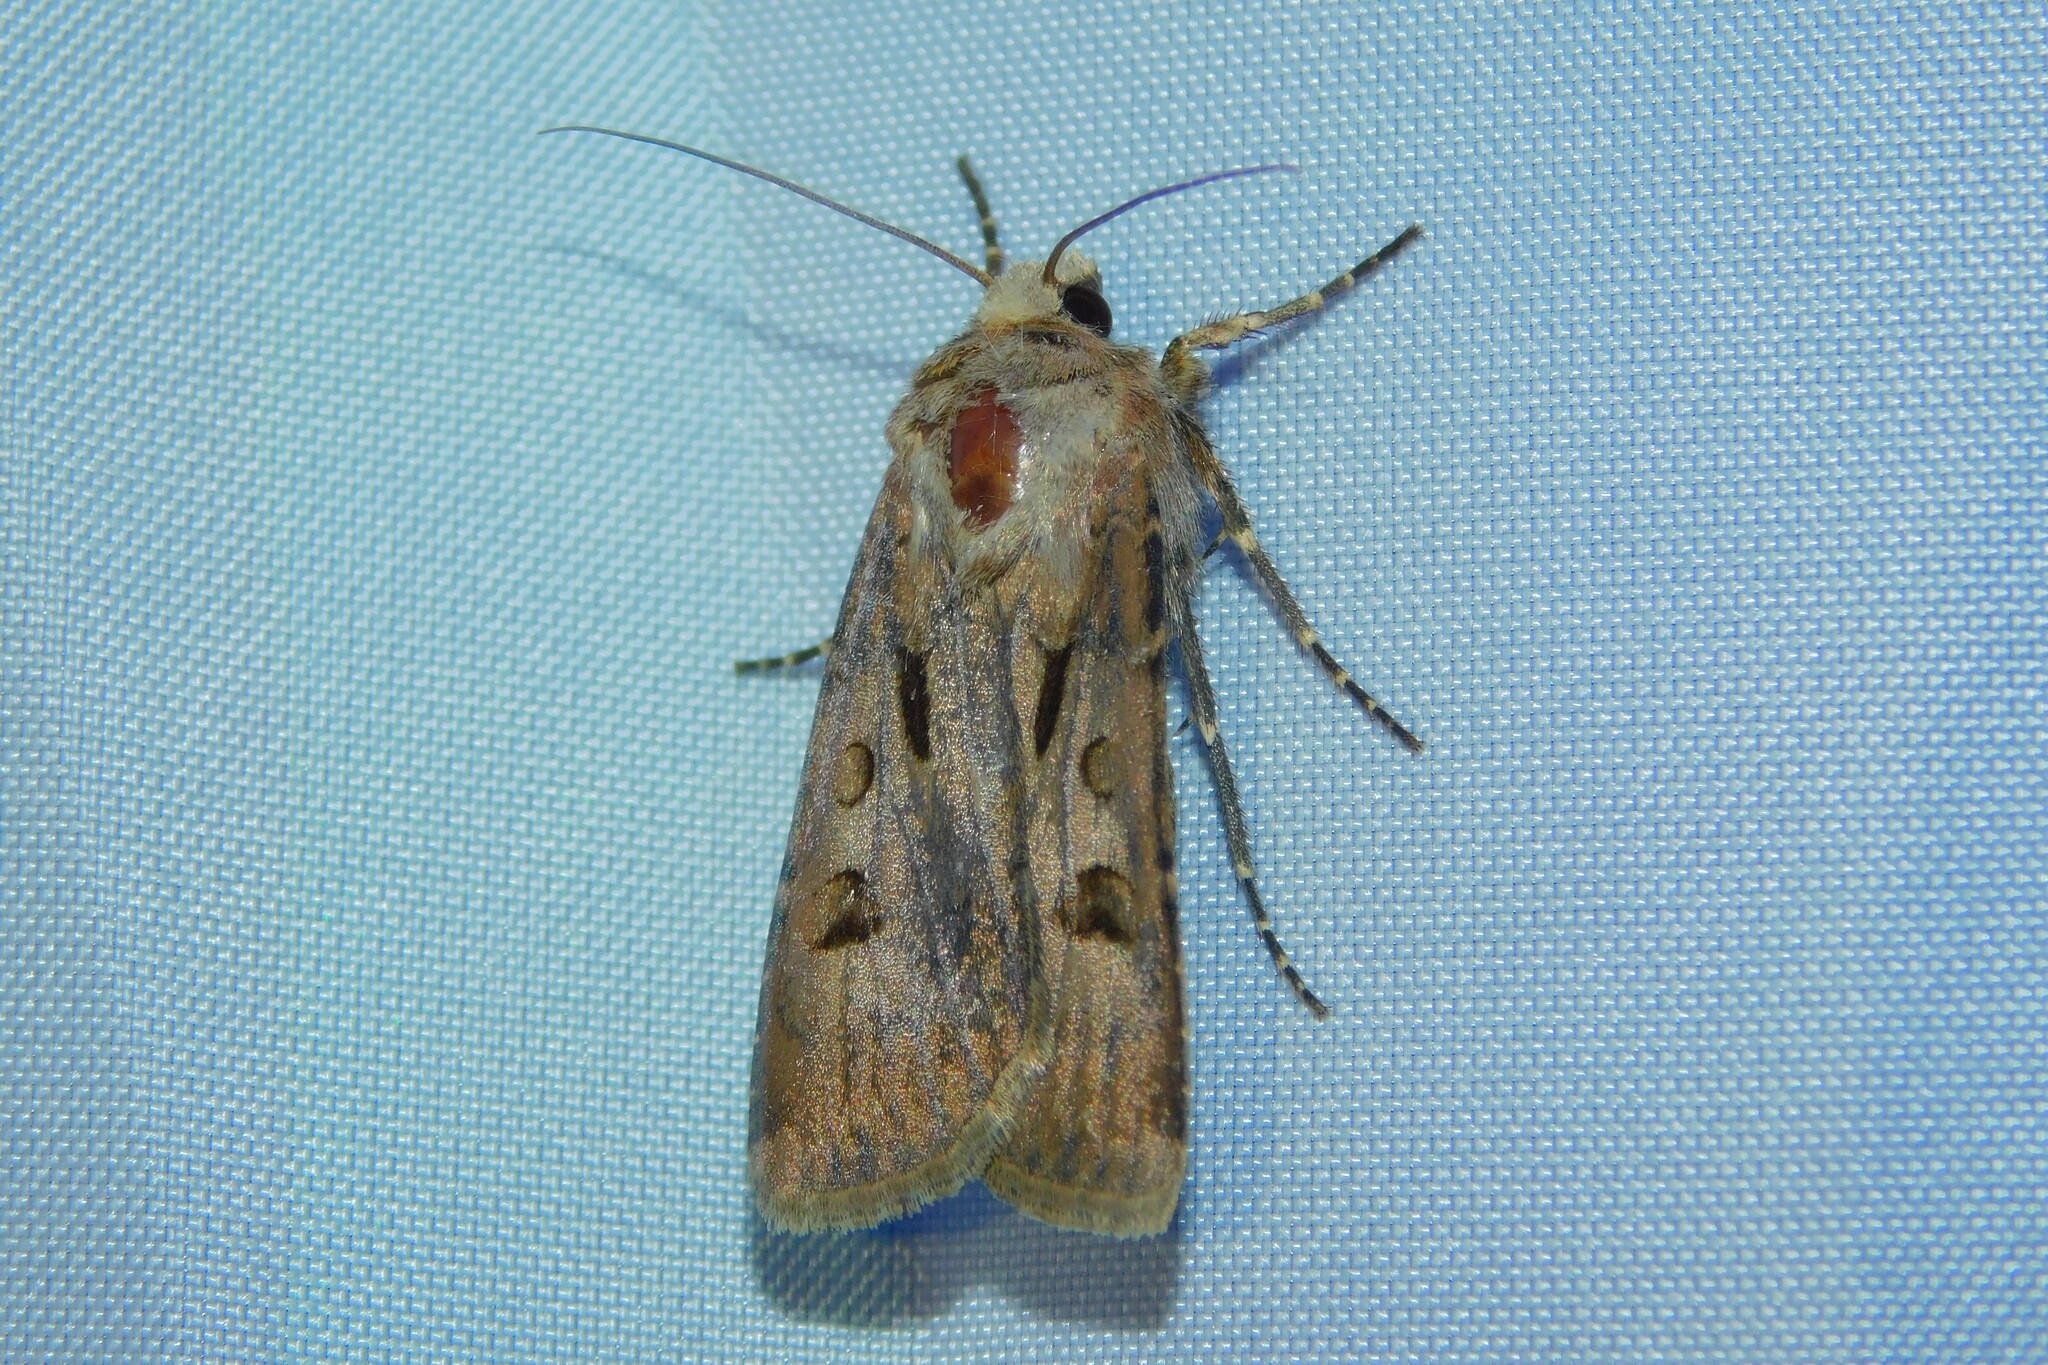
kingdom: Animalia
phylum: Arthropoda
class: Insecta
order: Lepidoptera
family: Noctuidae
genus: Agrotis
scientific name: Agrotis exclamationis
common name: Heart and dart
